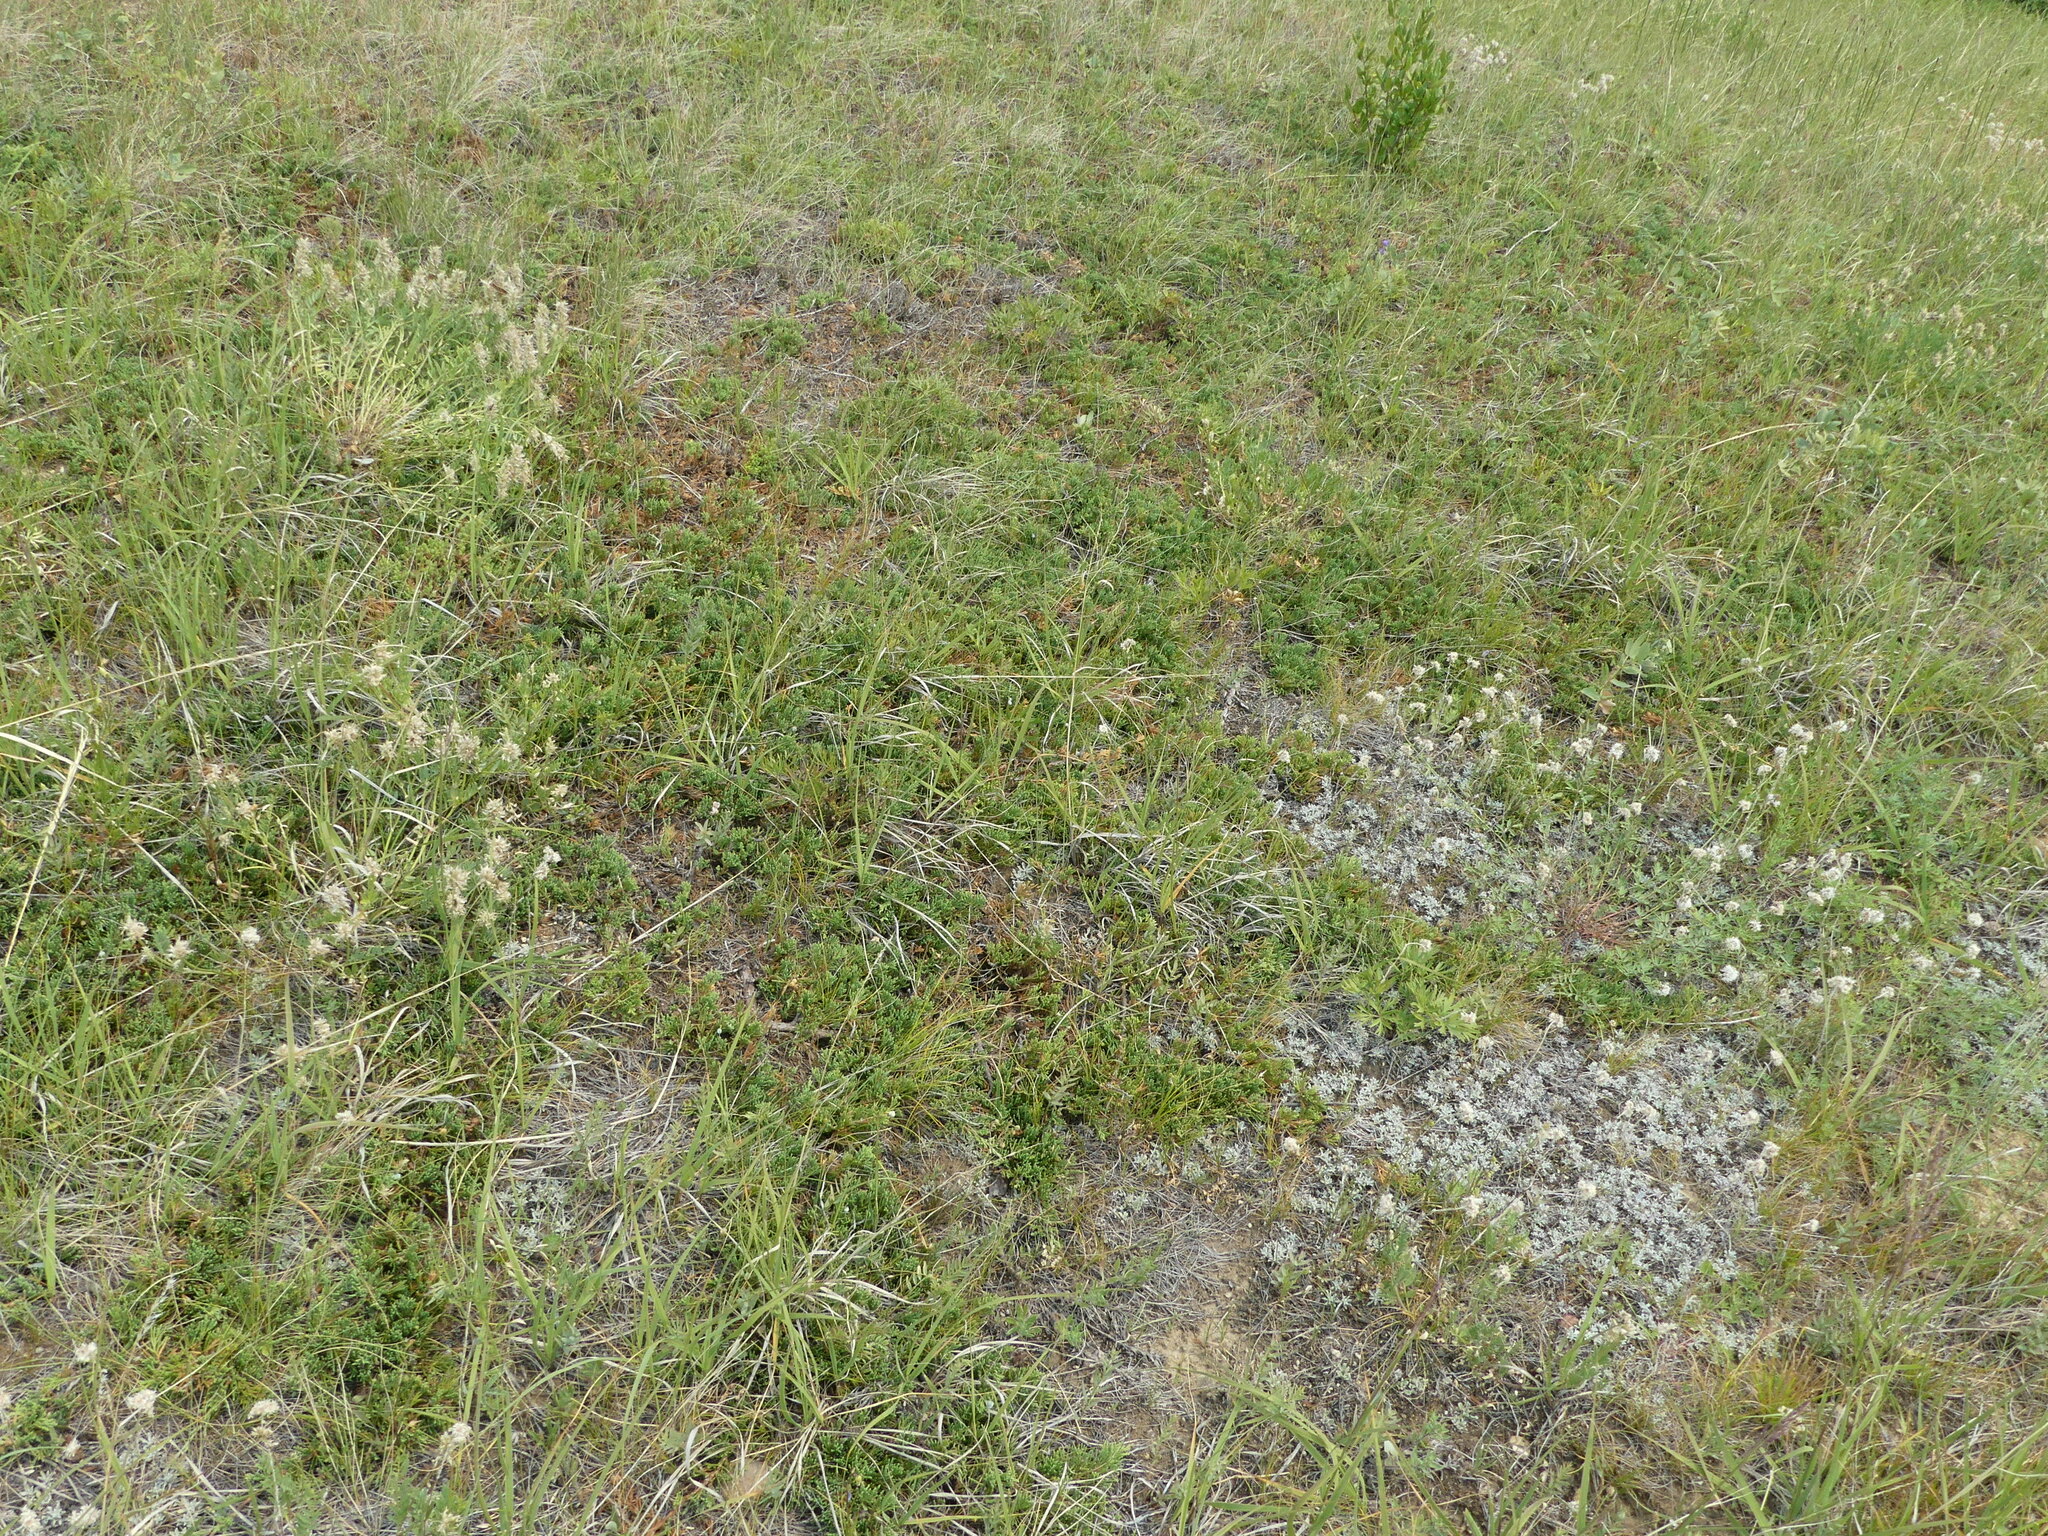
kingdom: Plantae
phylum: Tracheophyta
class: Pinopsida
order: Pinales
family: Cupressaceae
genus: Juniperus
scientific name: Juniperus horizontalis
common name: Creeping juniper
